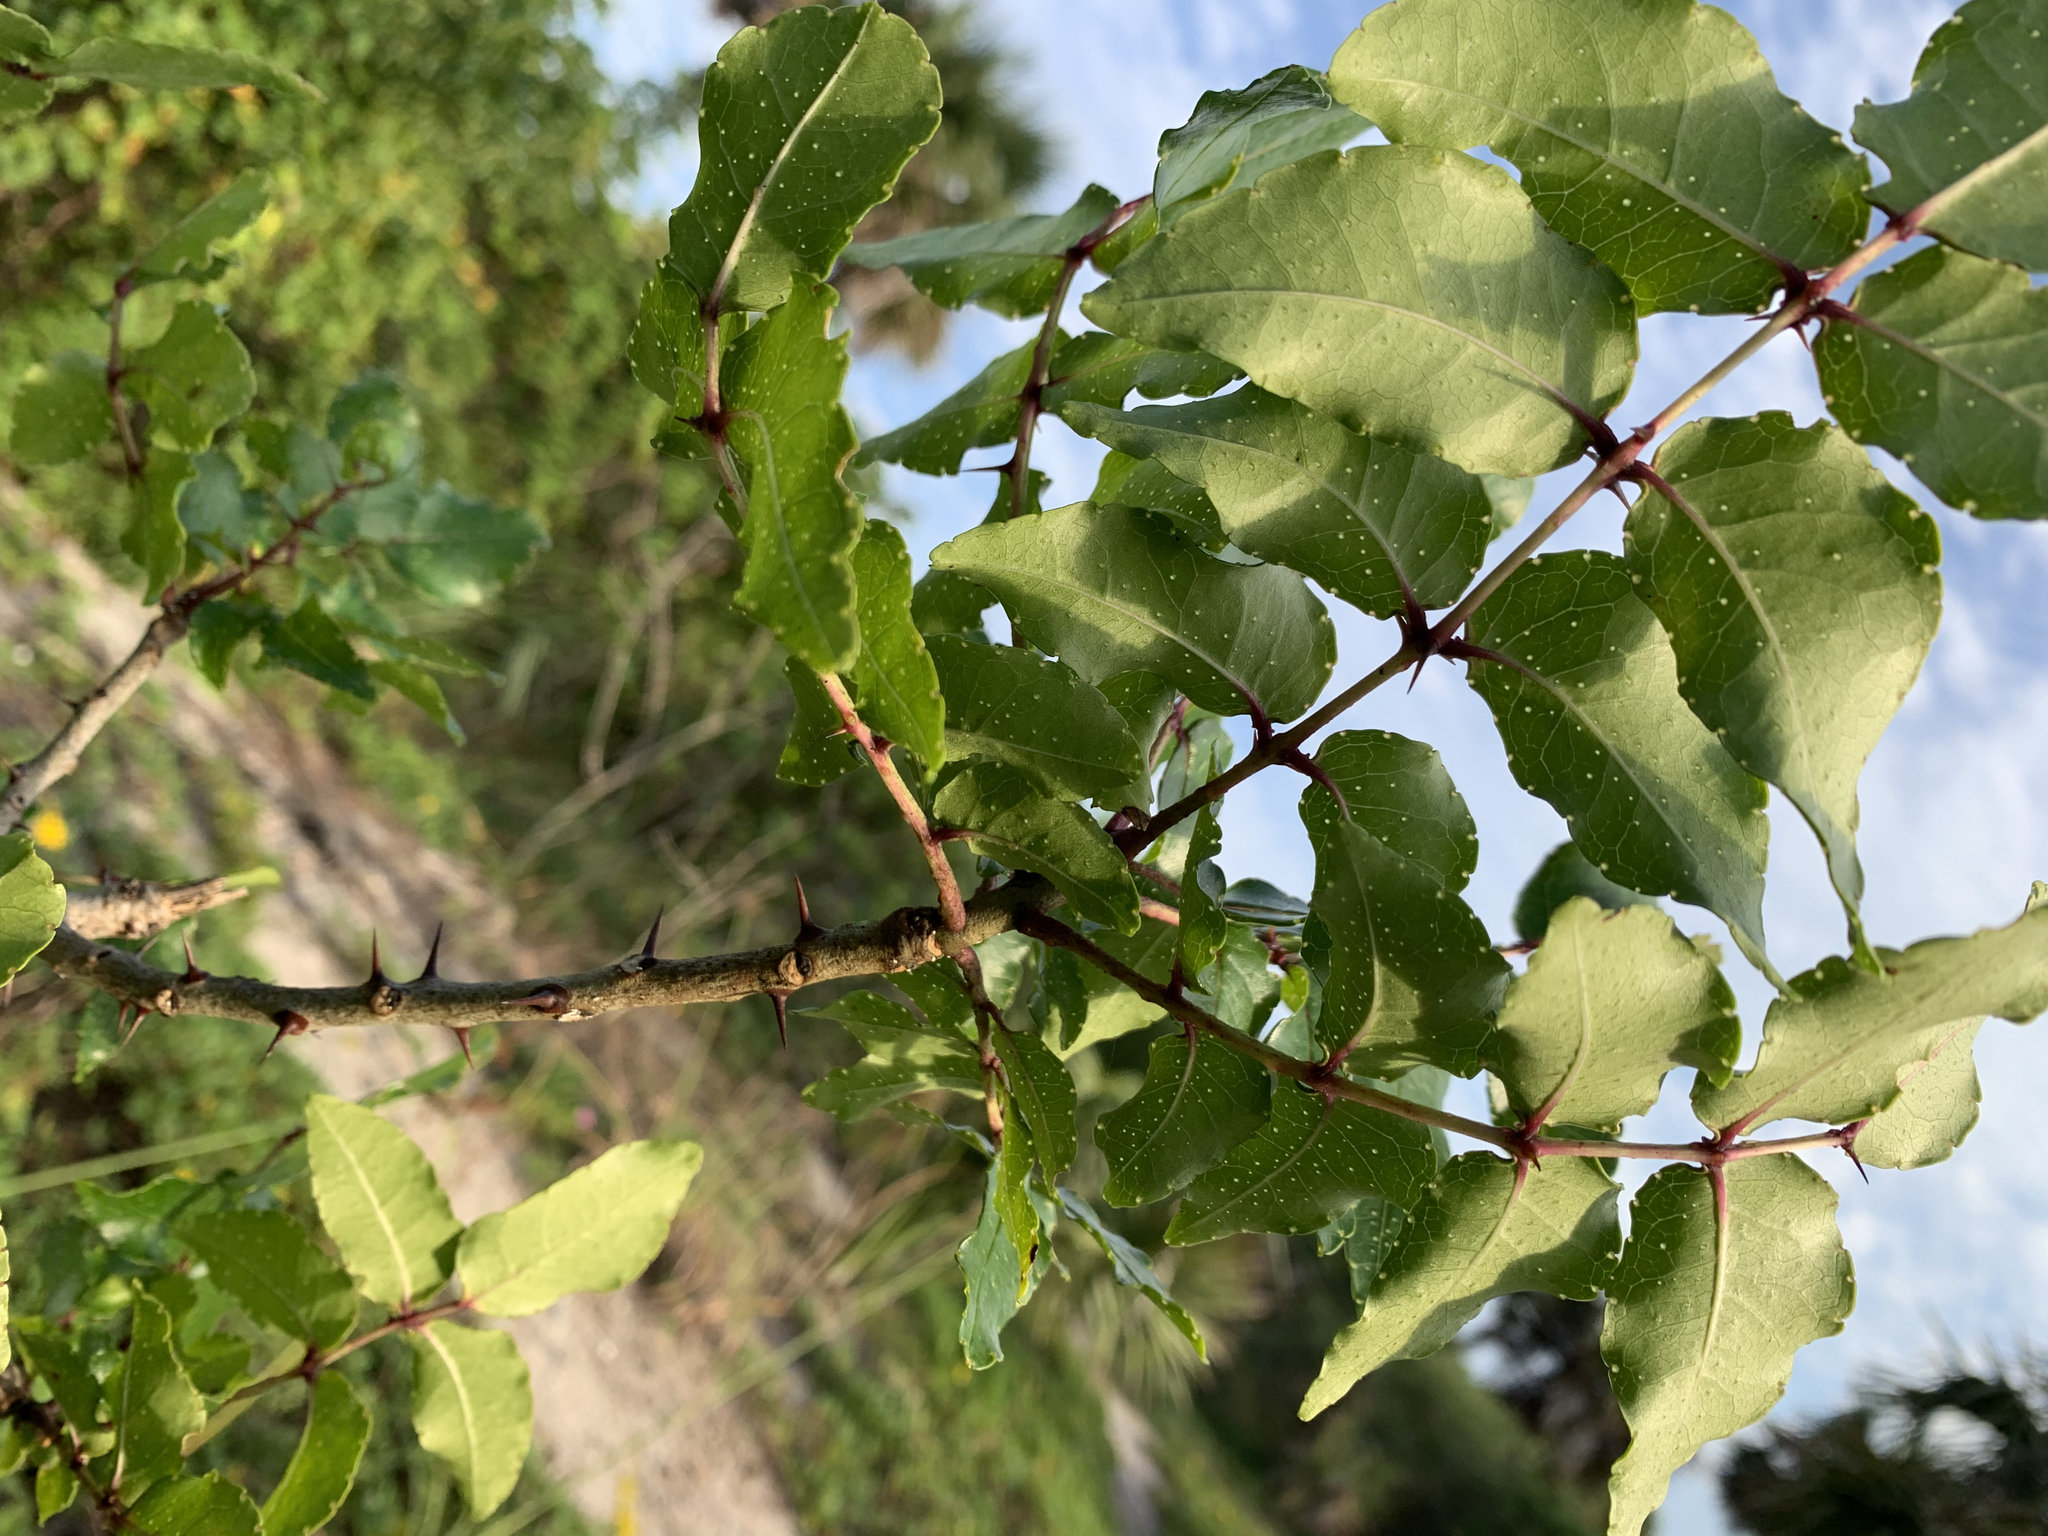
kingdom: Plantae
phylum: Tracheophyta
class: Magnoliopsida
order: Sapindales
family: Rutaceae
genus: Zanthoxylum
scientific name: Zanthoxylum clava-herculis
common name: Hercules'-club
